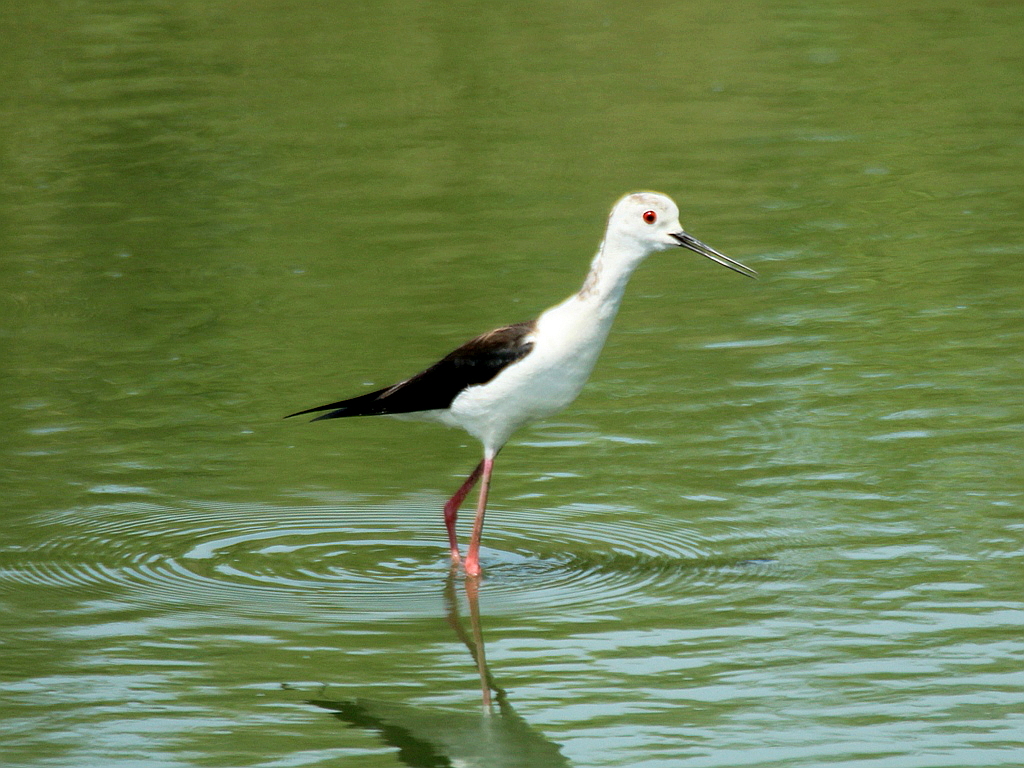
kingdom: Animalia
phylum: Chordata
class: Aves
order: Charadriiformes
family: Recurvirostridae
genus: Himantopus
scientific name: Himantopus himantopus
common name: Black-winged stilt
